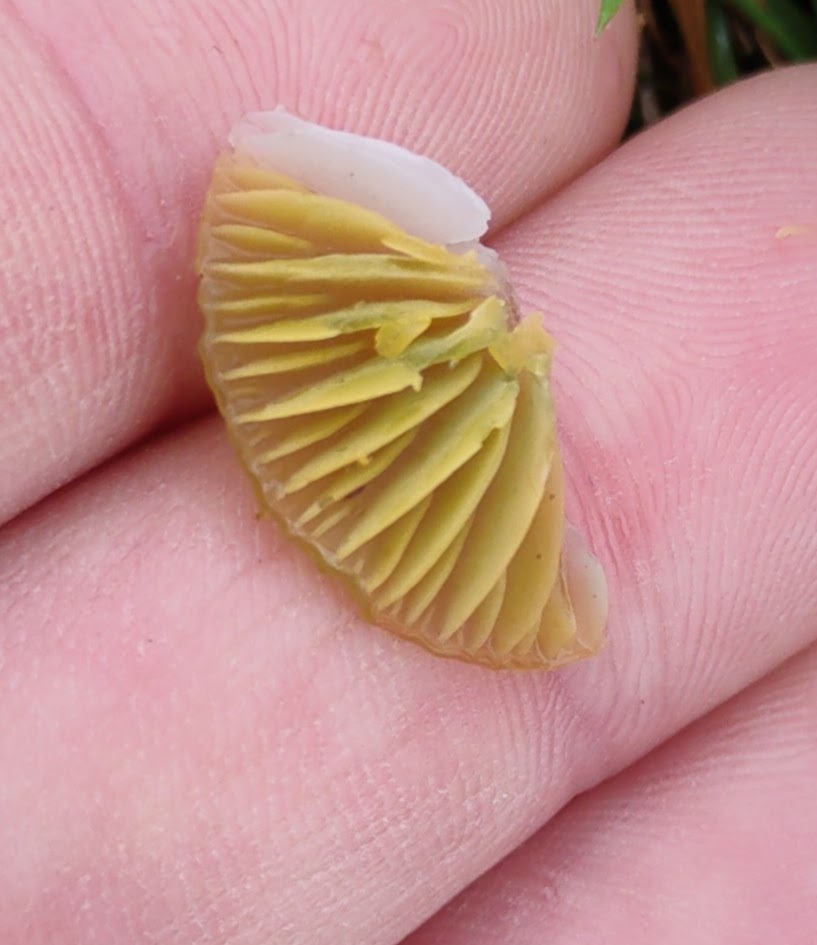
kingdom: Fungi
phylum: Basidiomycota
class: Agaricomycetes
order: Agaricales
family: Hygrophoraceae
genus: Gliophorus
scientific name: Gliophorus psittacinus
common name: Parrot wax-cap
